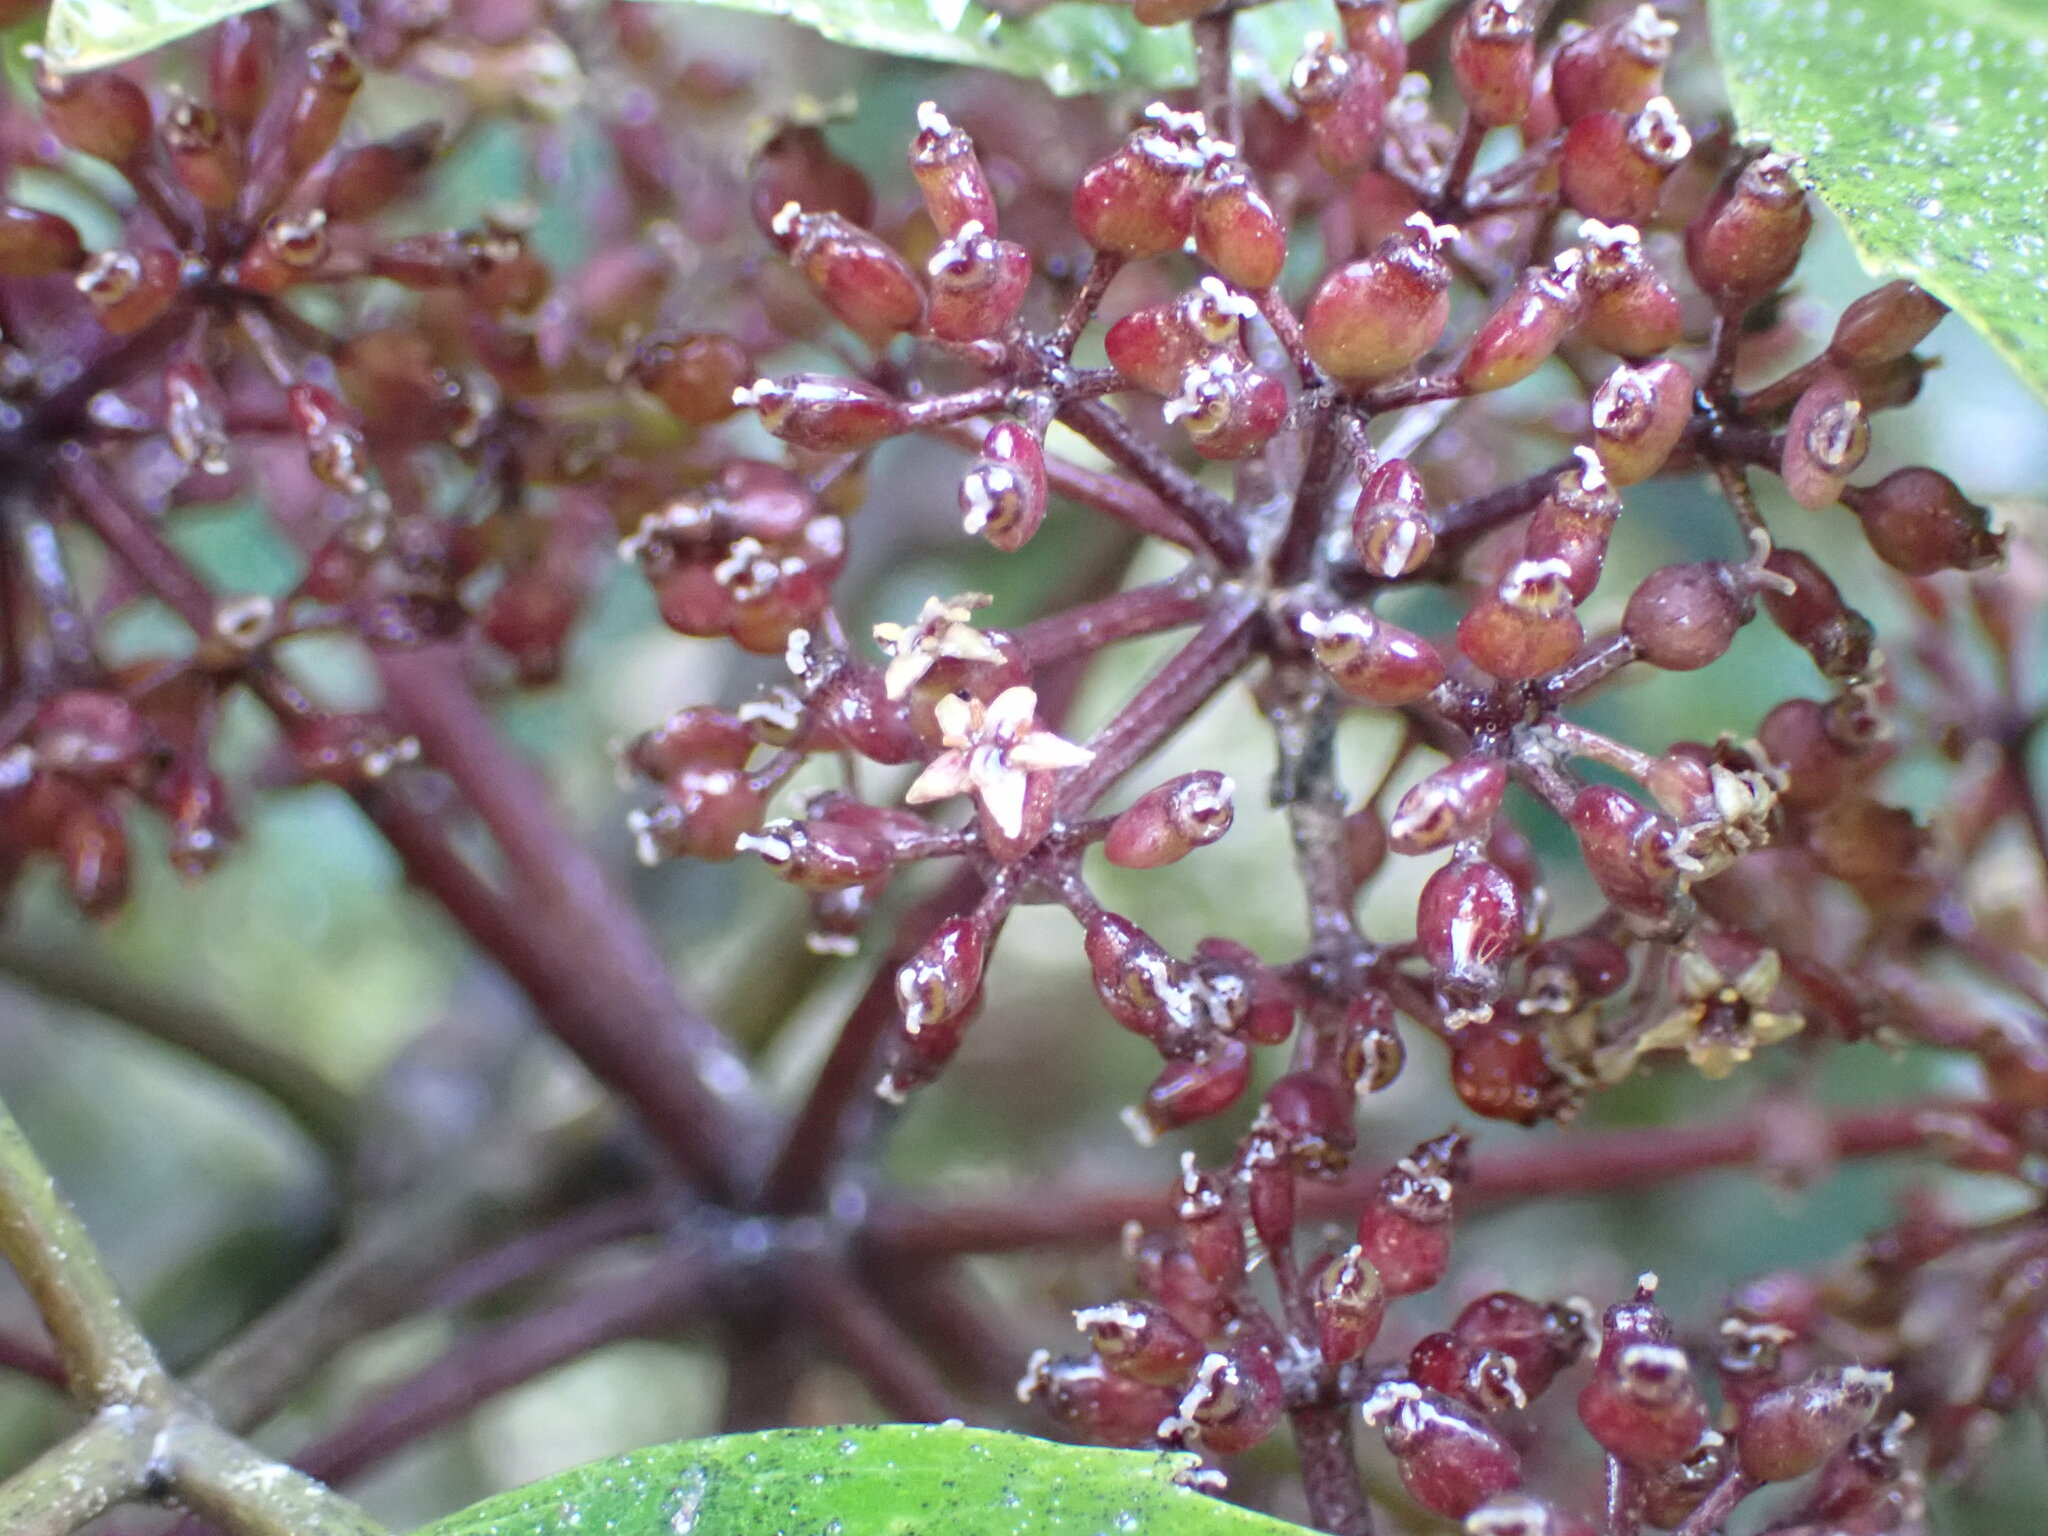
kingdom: Plantae
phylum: Tracheophyta
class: Magnoliopsida
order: Apiales
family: Araliaceae
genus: Neopanax
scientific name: Neopanax arboreus
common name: Five-fingers
